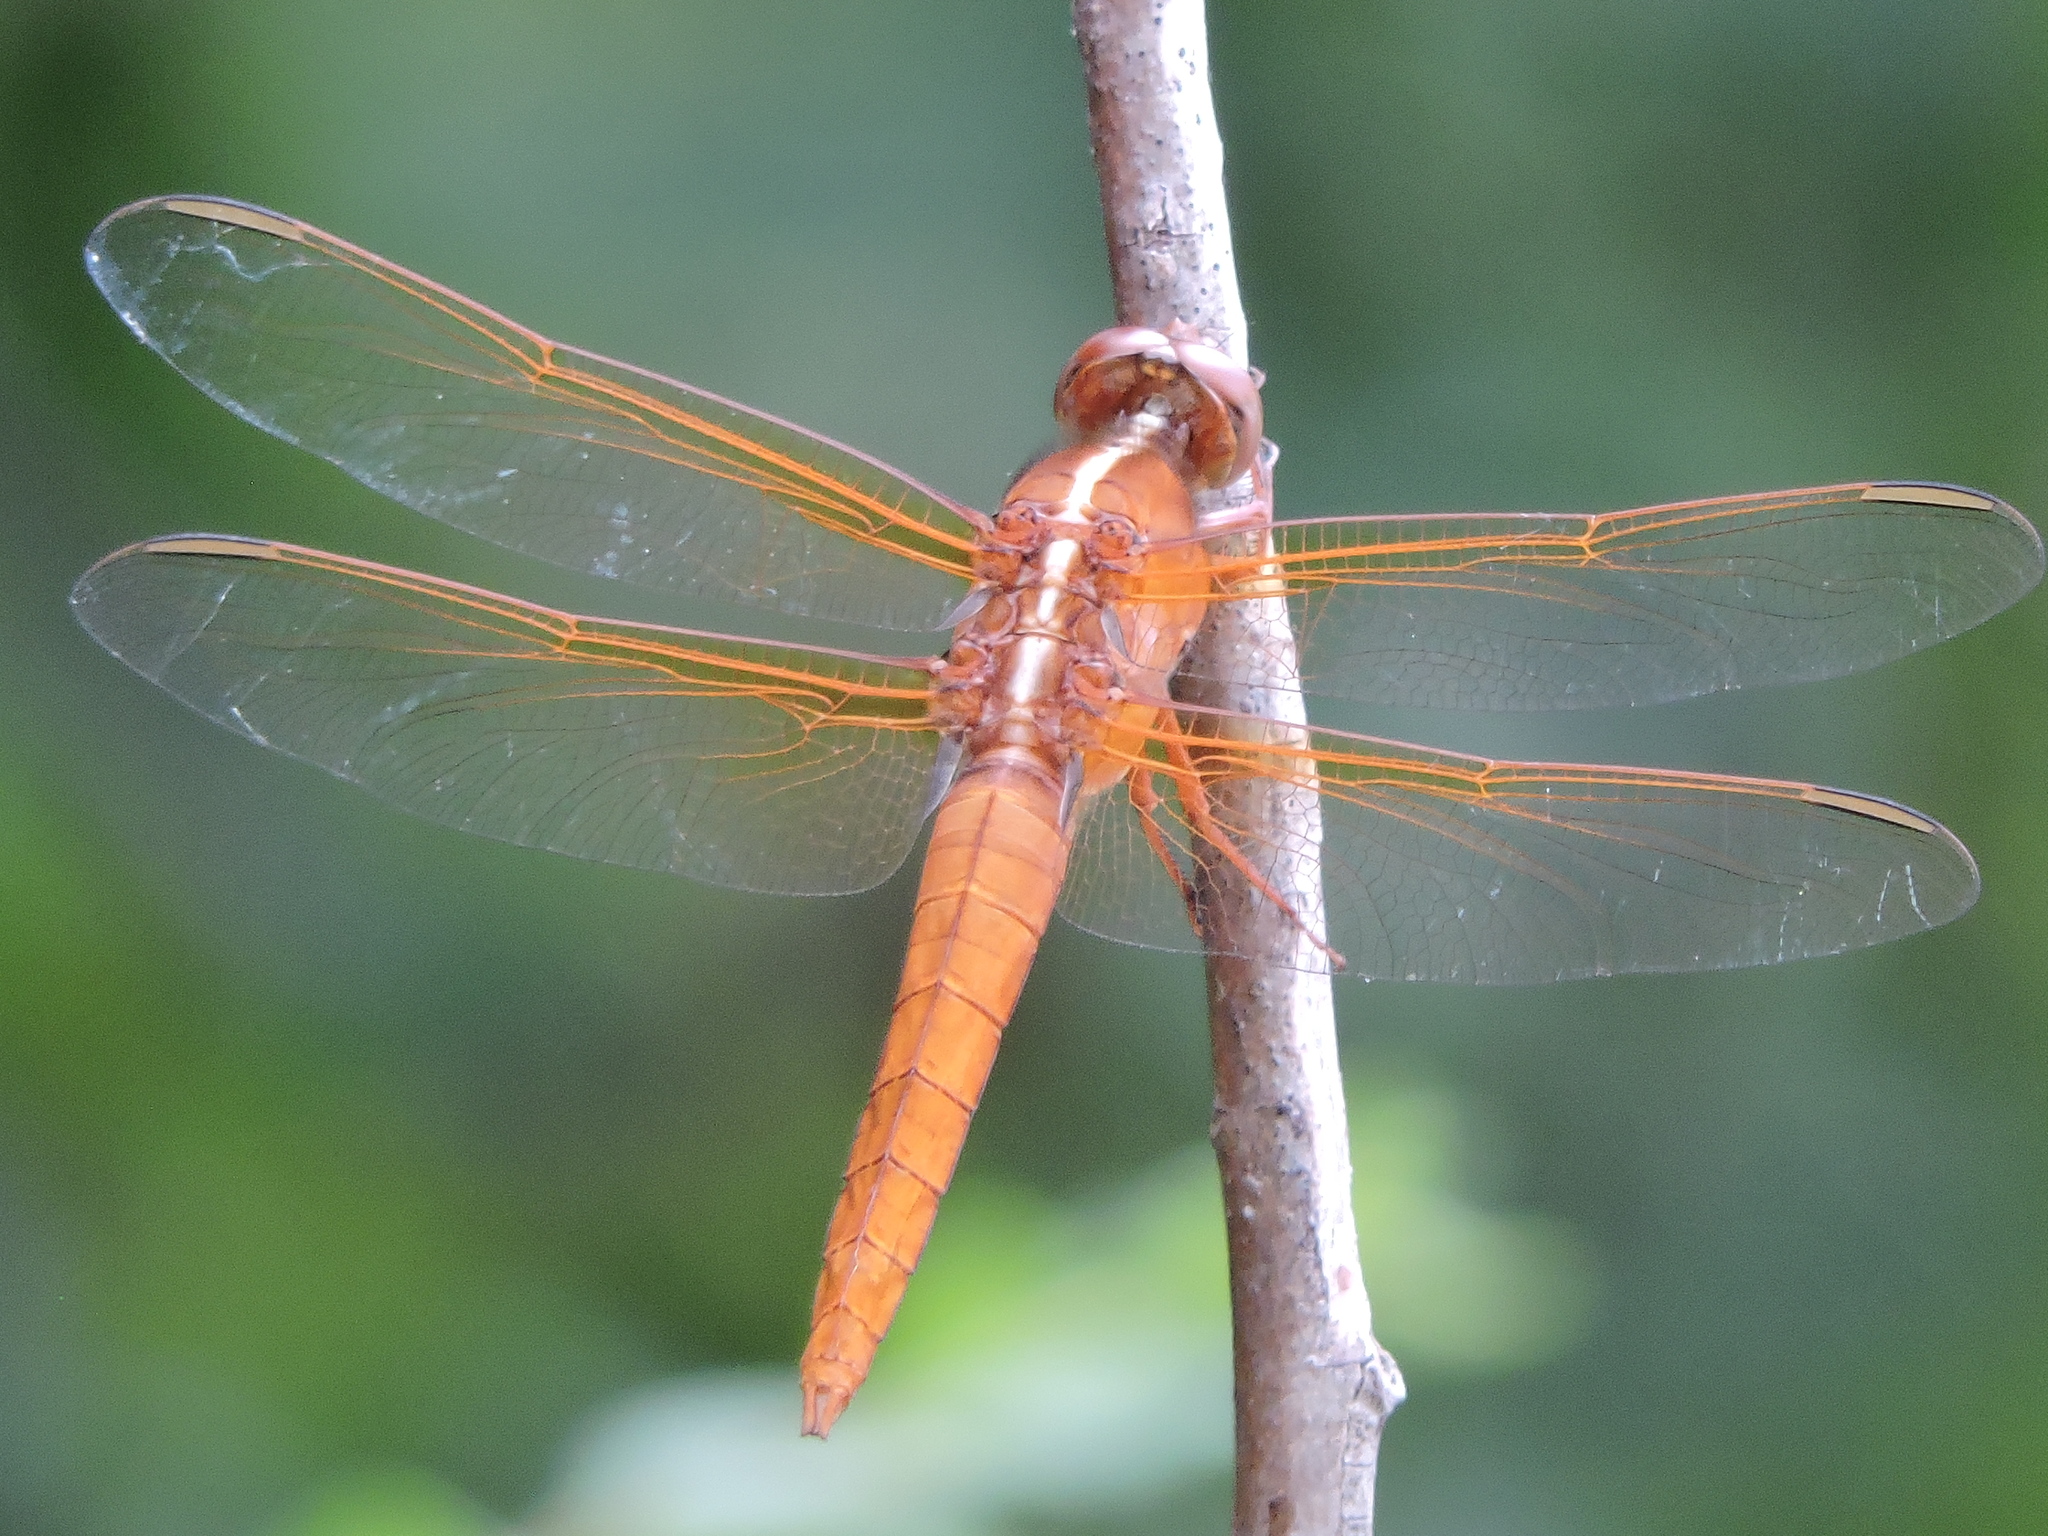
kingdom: Animalia
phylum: Arthropoda
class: Insecta
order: Odonata
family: Libellulidae
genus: Libellula
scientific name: Libellula croceipennis
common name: Neon skimmer
